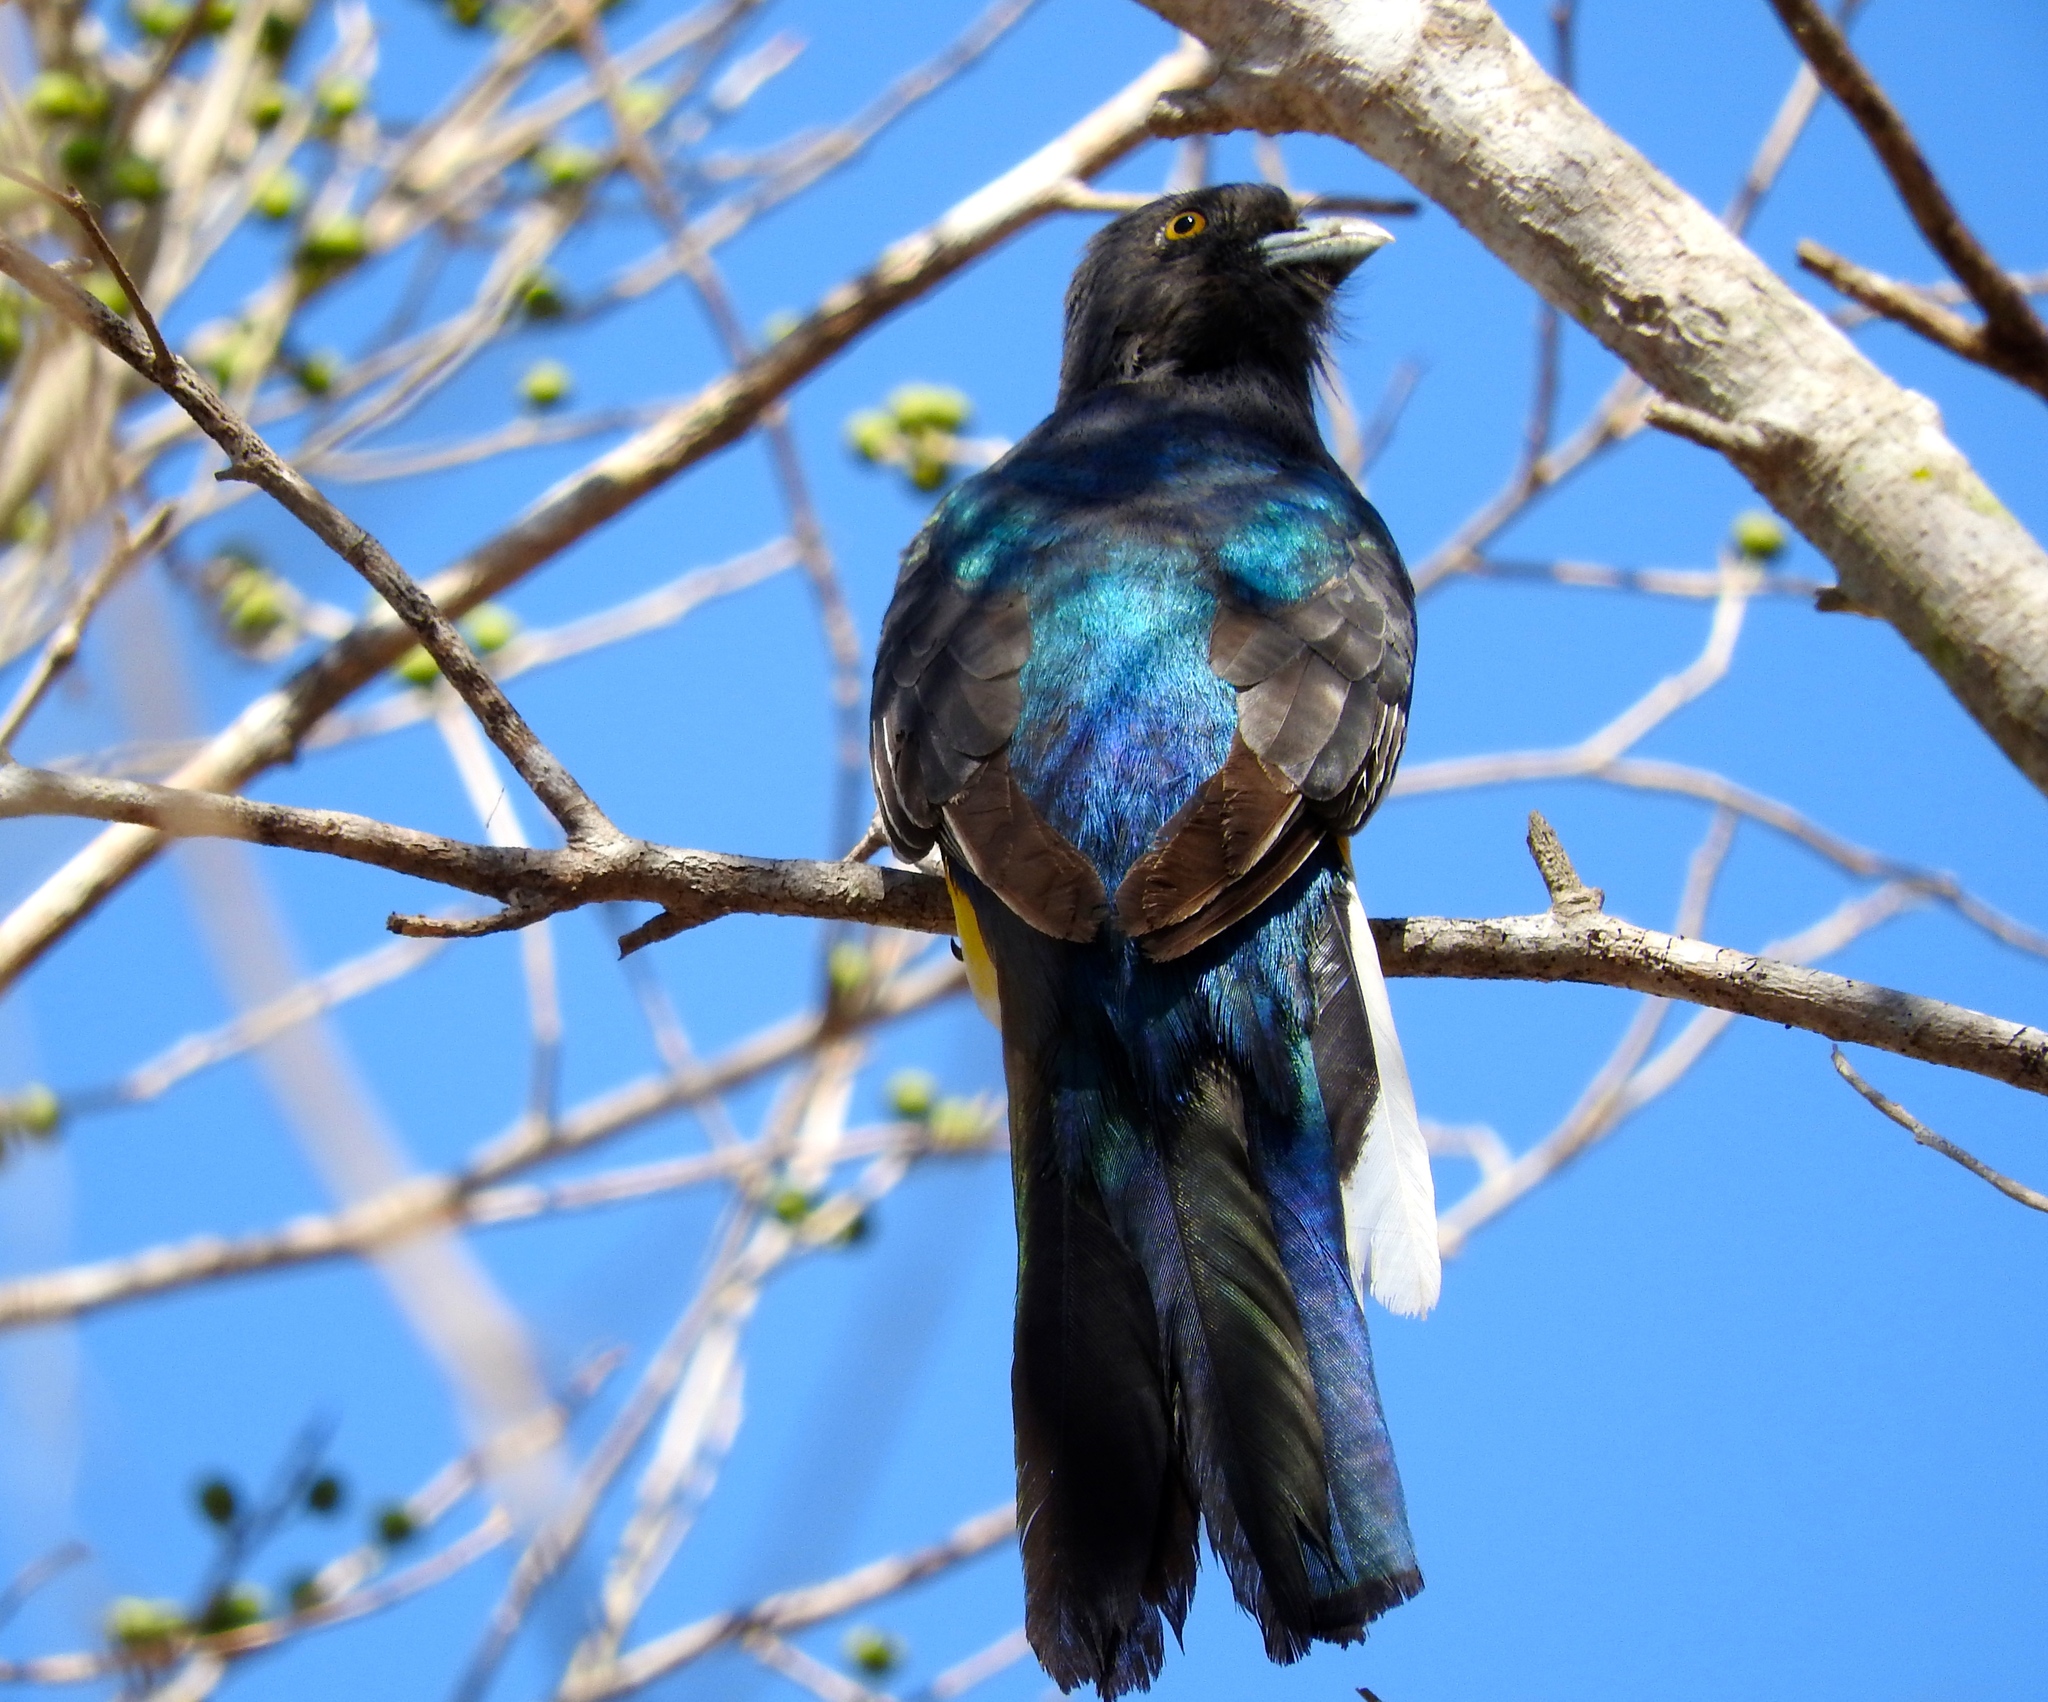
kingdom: Animalia
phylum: Chordata
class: Aves
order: Trogoniformes
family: Trogonidae
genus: Trogon
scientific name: Trogon citreolus
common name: Citreoline trogon
